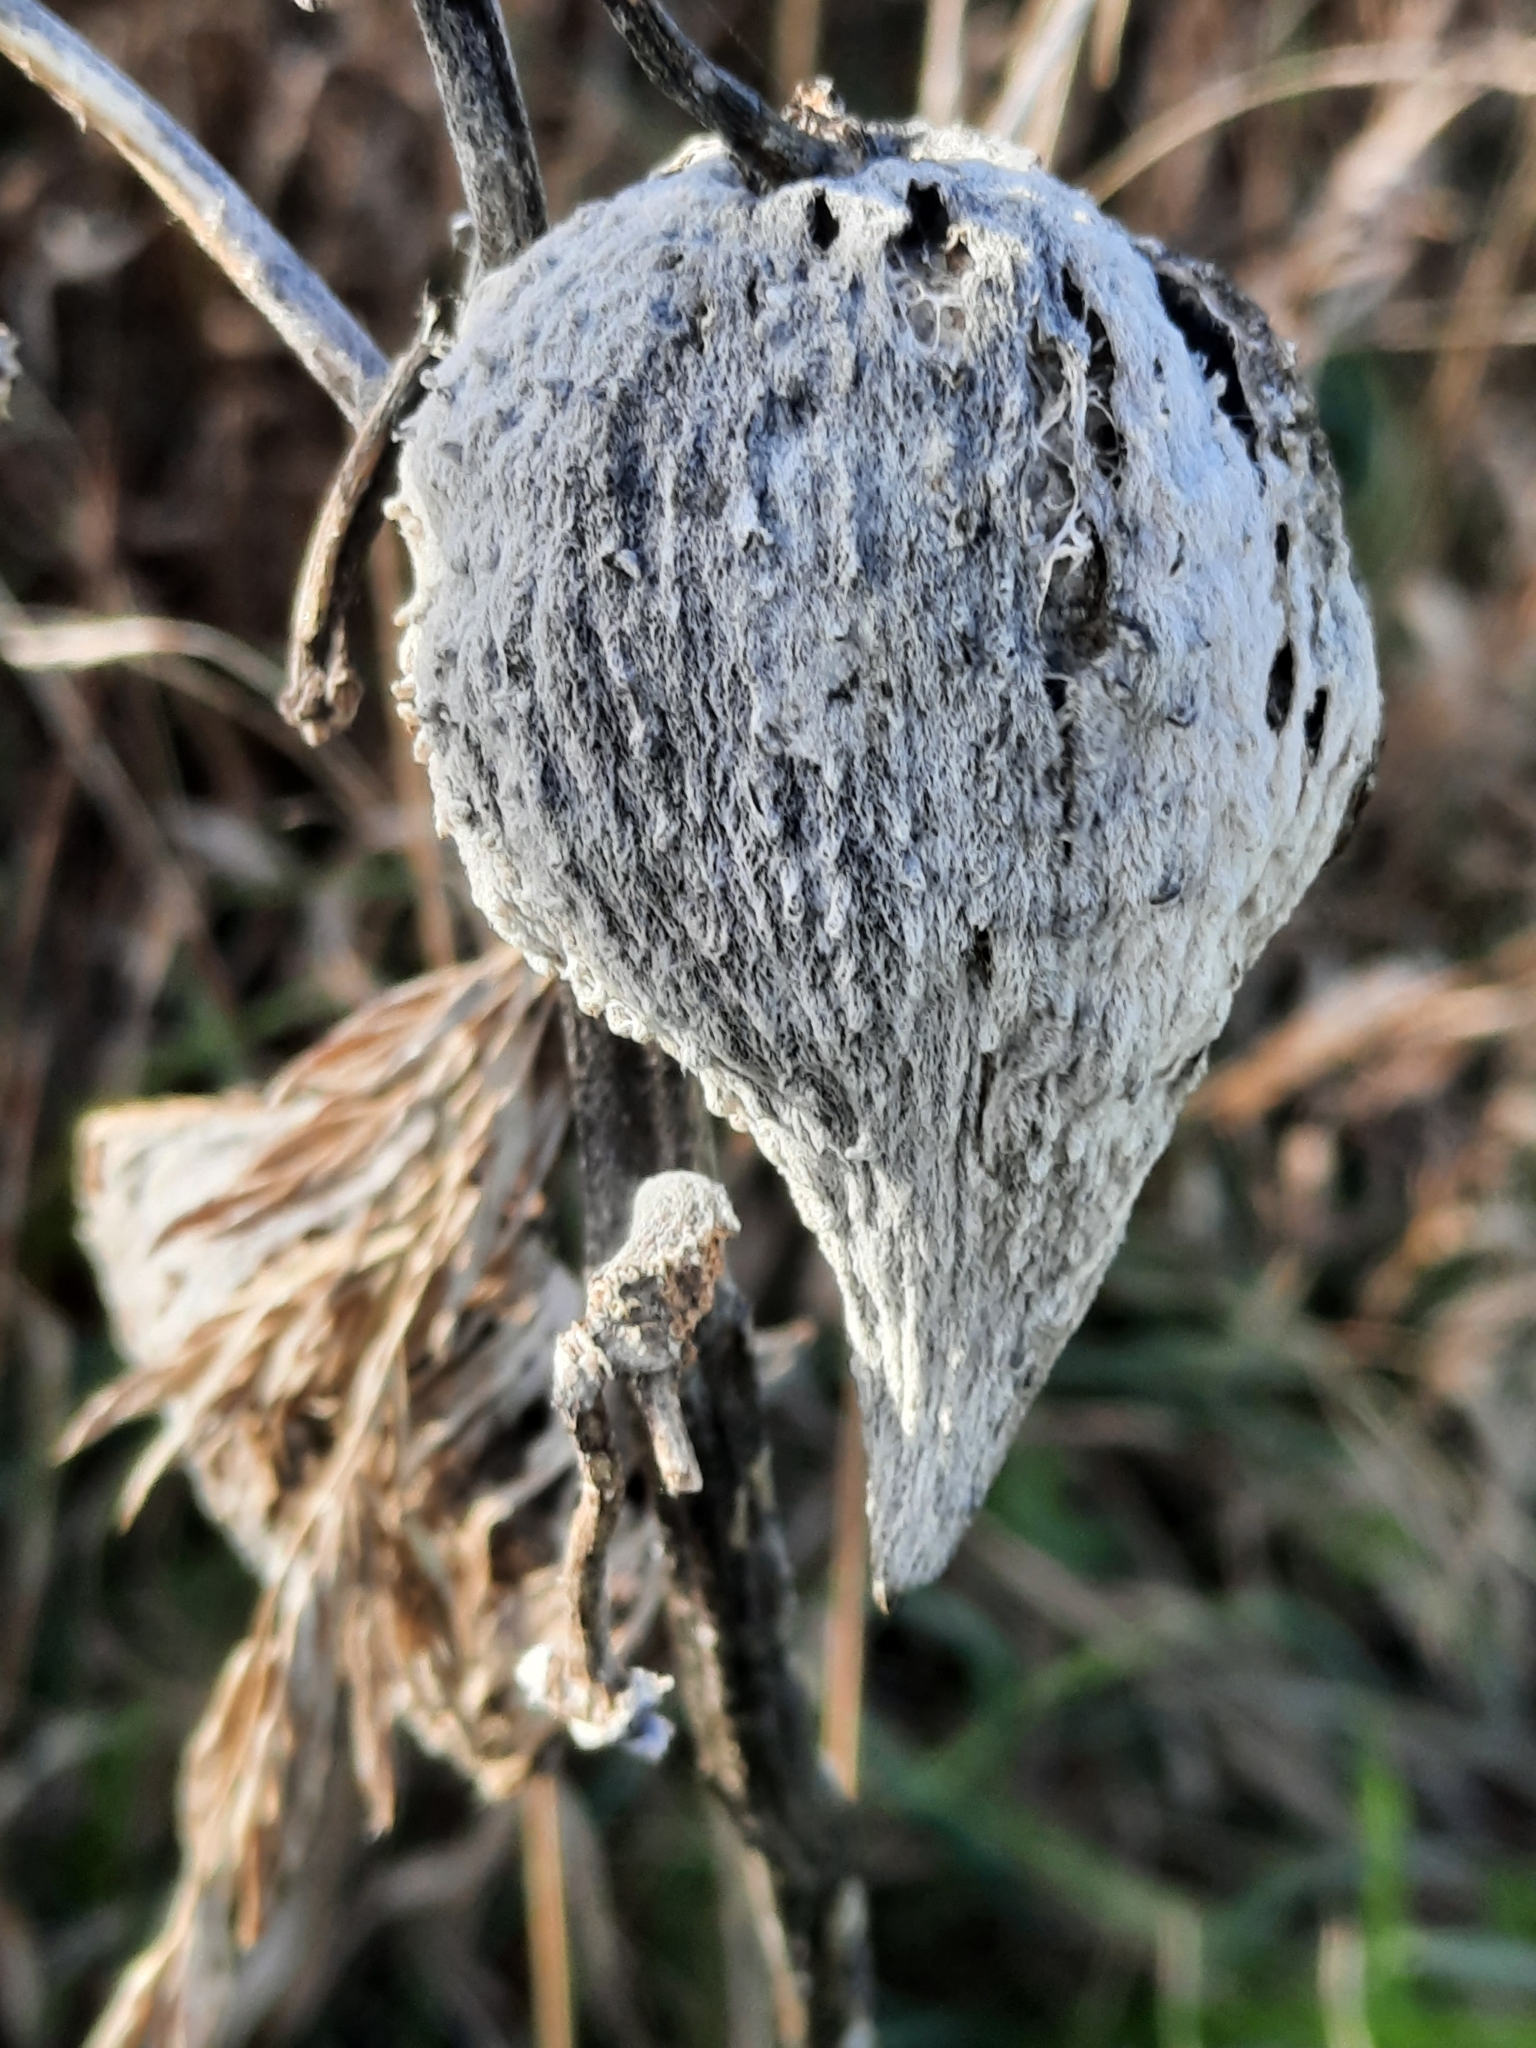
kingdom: Plantae
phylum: Tracheophyta
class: Magnoliopsida
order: Gentianales
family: Apocynaceae
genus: Asclepias
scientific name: Asclepias syriaca
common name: Common milkweed
